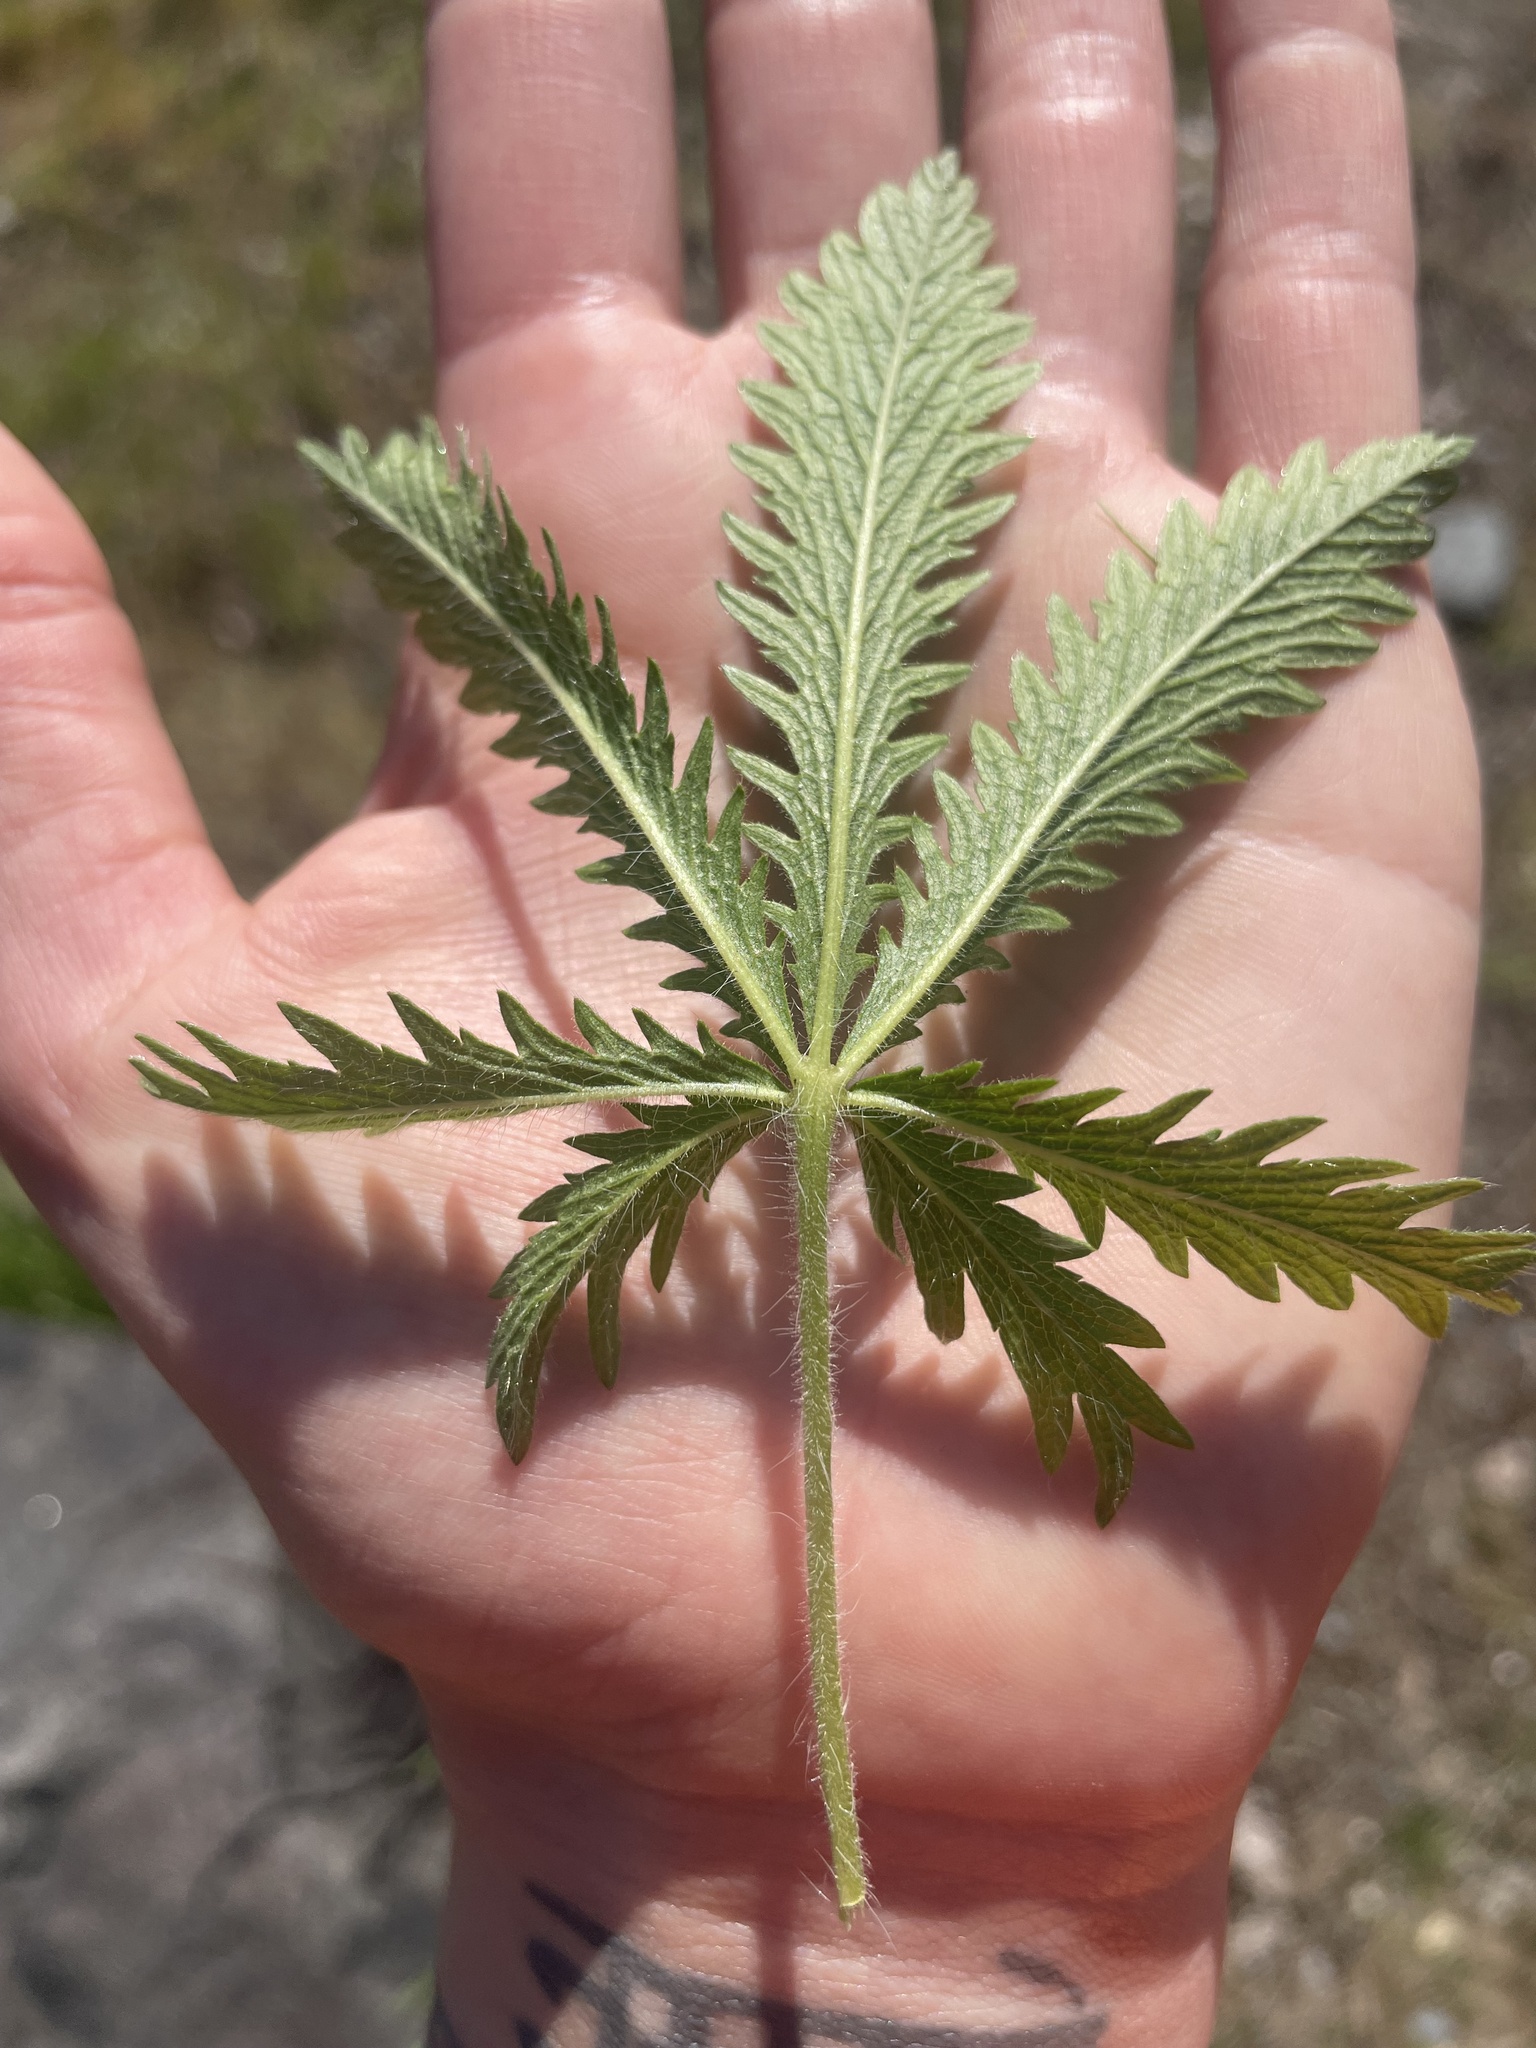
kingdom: Plantae
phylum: Tracheophyta
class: Magnoliopsida
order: Rosales
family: Rosaceae
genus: Potentilla
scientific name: Potentilla recta
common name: Sulphur cinquefoil
